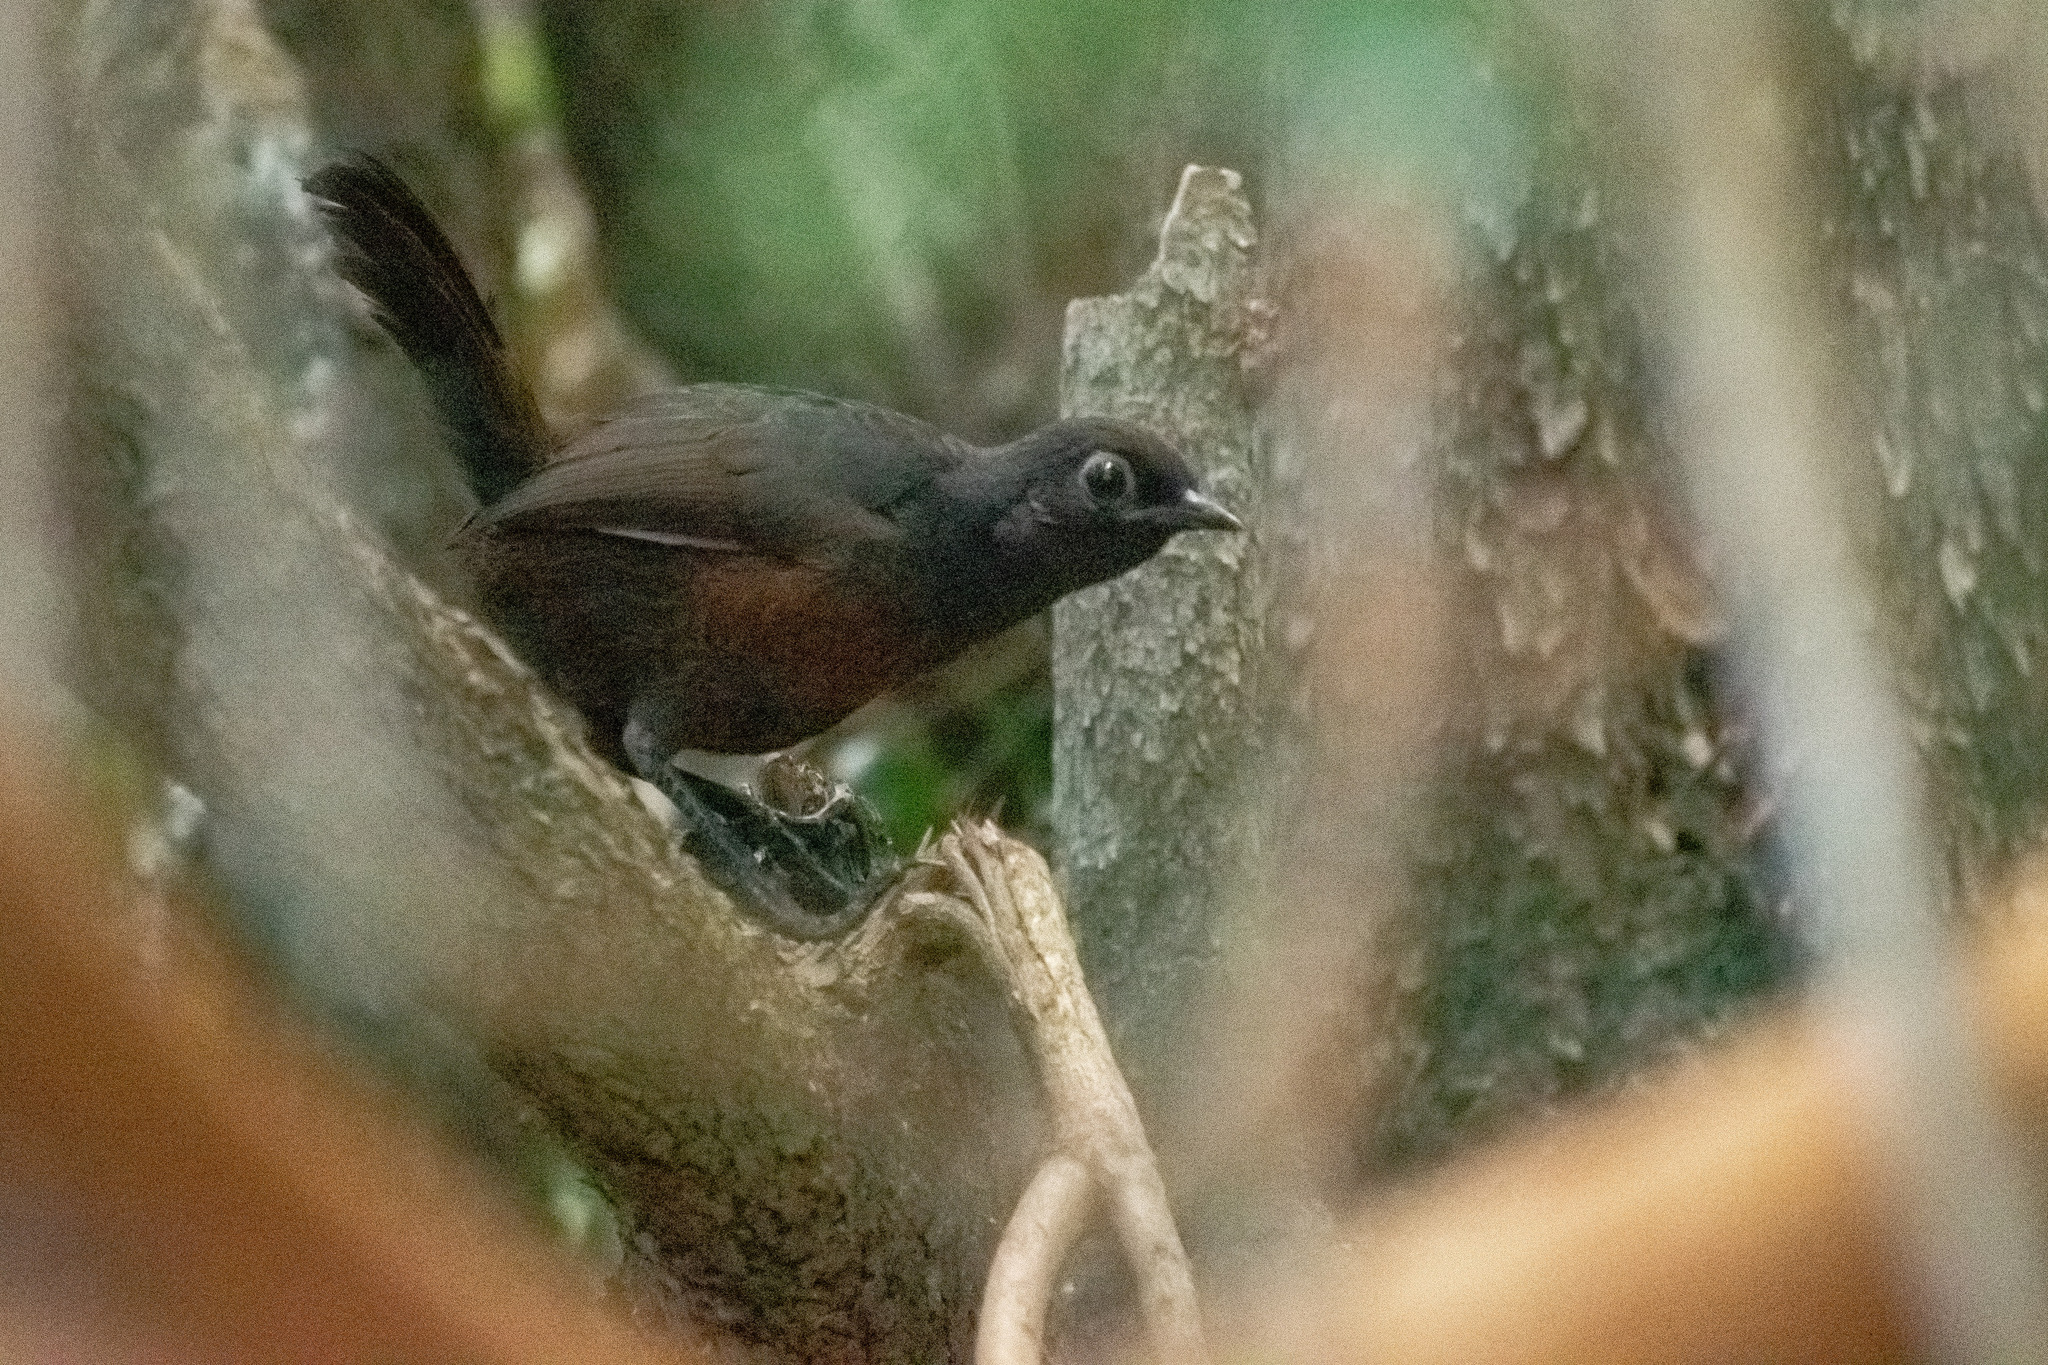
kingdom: Animalia
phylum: Chordata
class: Aves
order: Passeriformes
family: Rhinocryptidae
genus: Pteroptochos
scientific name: Pteroptochos tarnii
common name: Black-throated huet-huet
